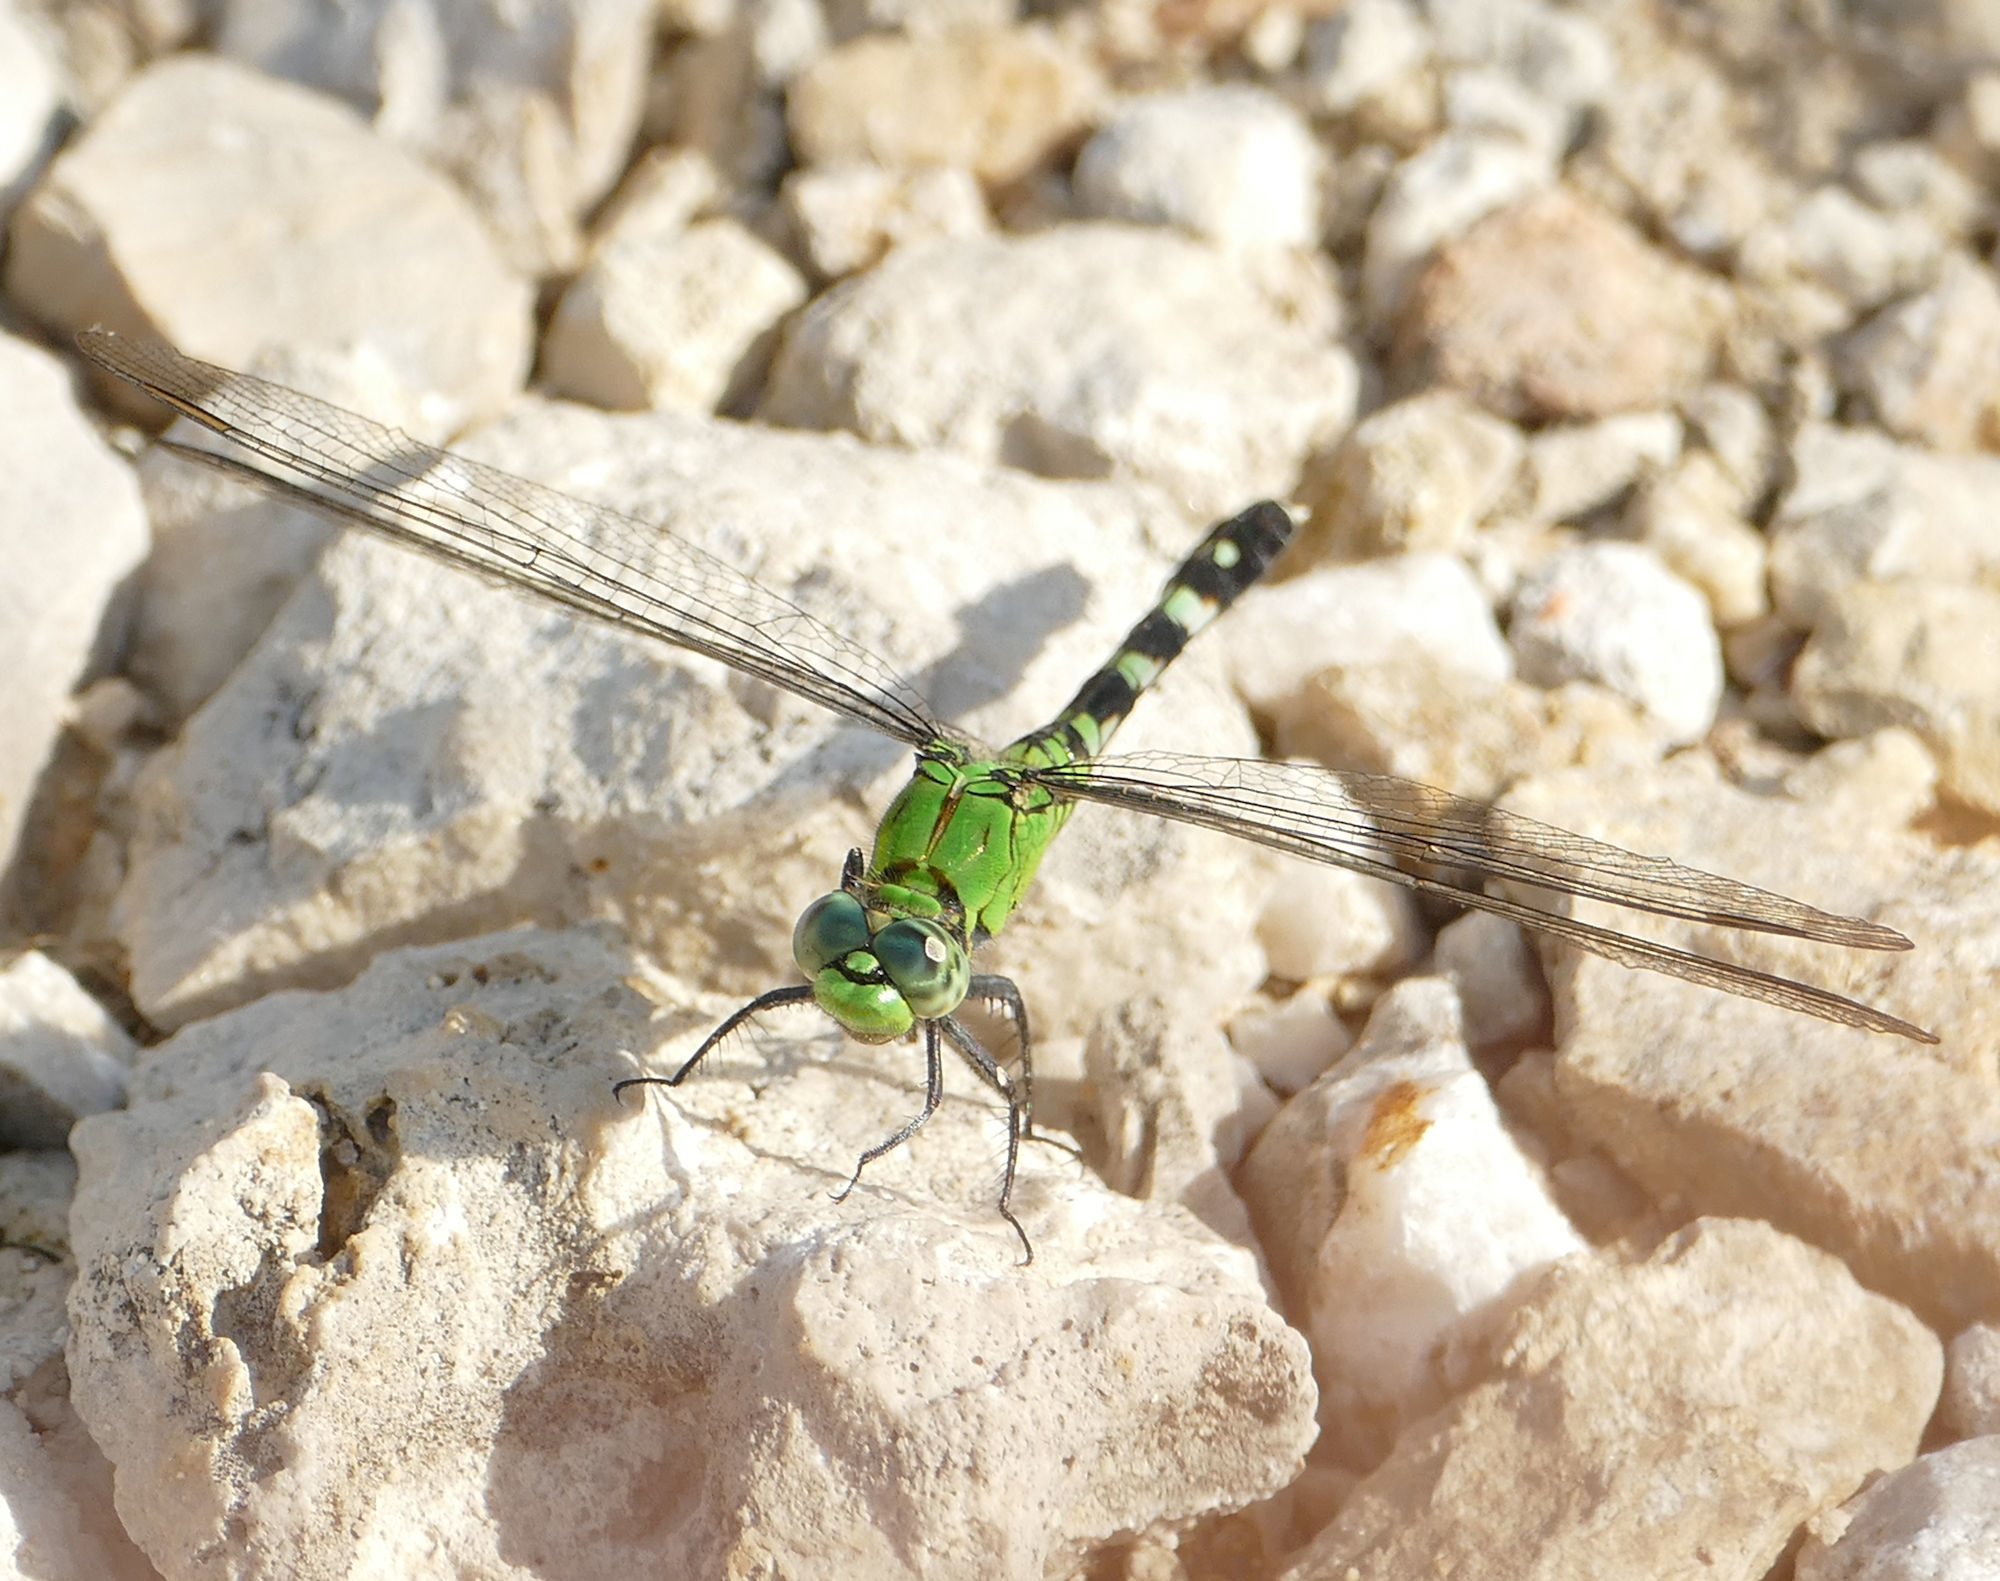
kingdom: Animalia
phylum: Arthropoda
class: Insecta
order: Odonata
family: Libellulidae
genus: Erythemis
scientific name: Erythemis simplicicollis
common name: Eastern pondhawk
